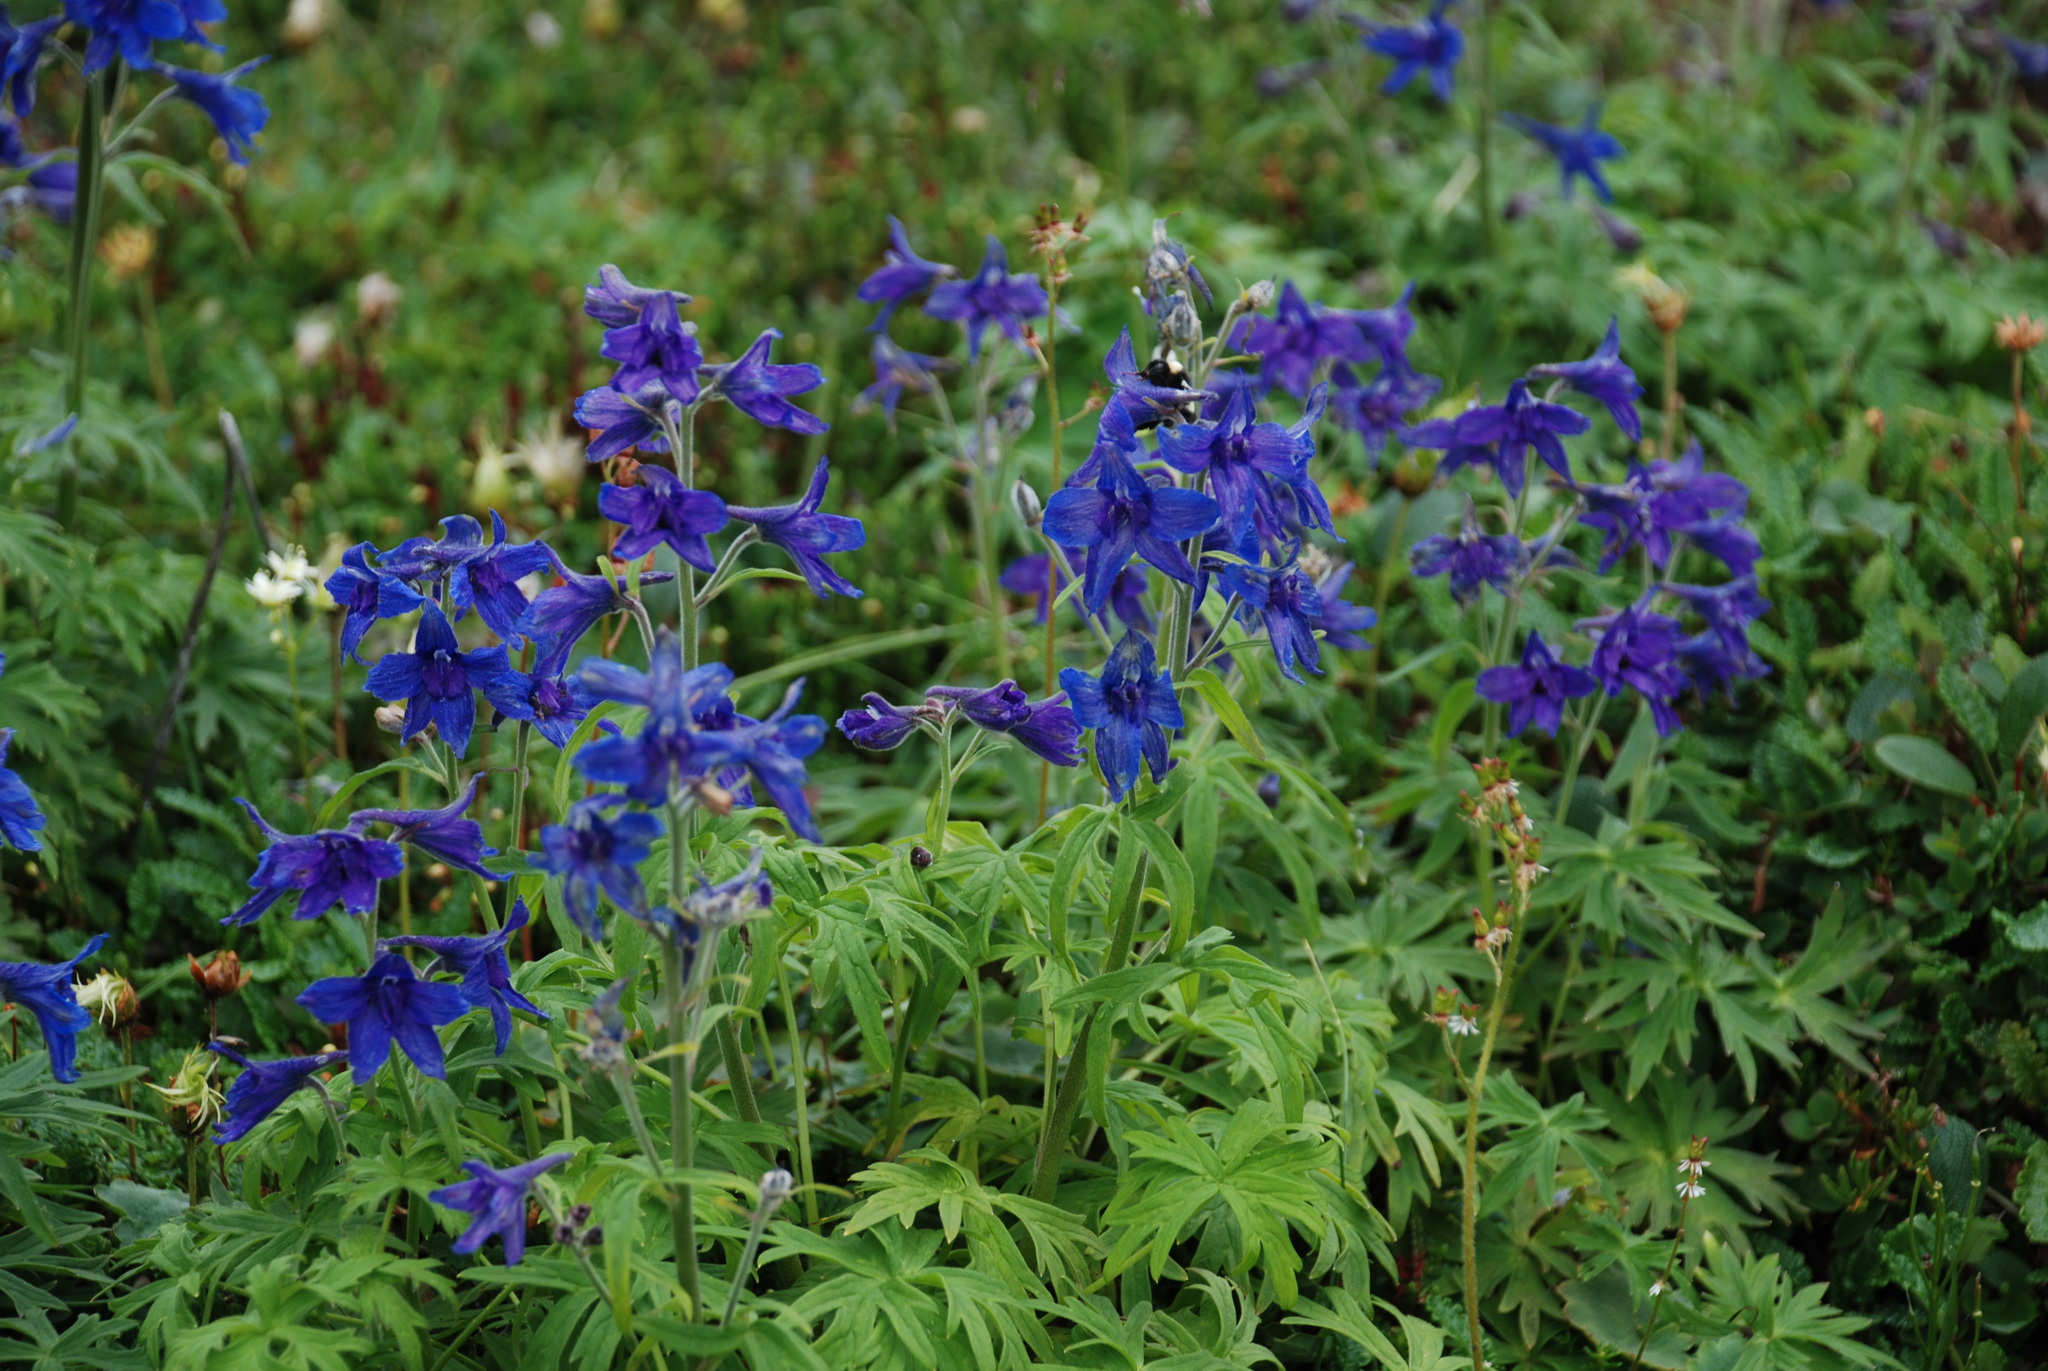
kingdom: Plantae
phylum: Tracheophyta
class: Magnoliopsida
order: Ranunculales
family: Ranunculaceae
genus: Delphinium
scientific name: Delphinium chamissonis
